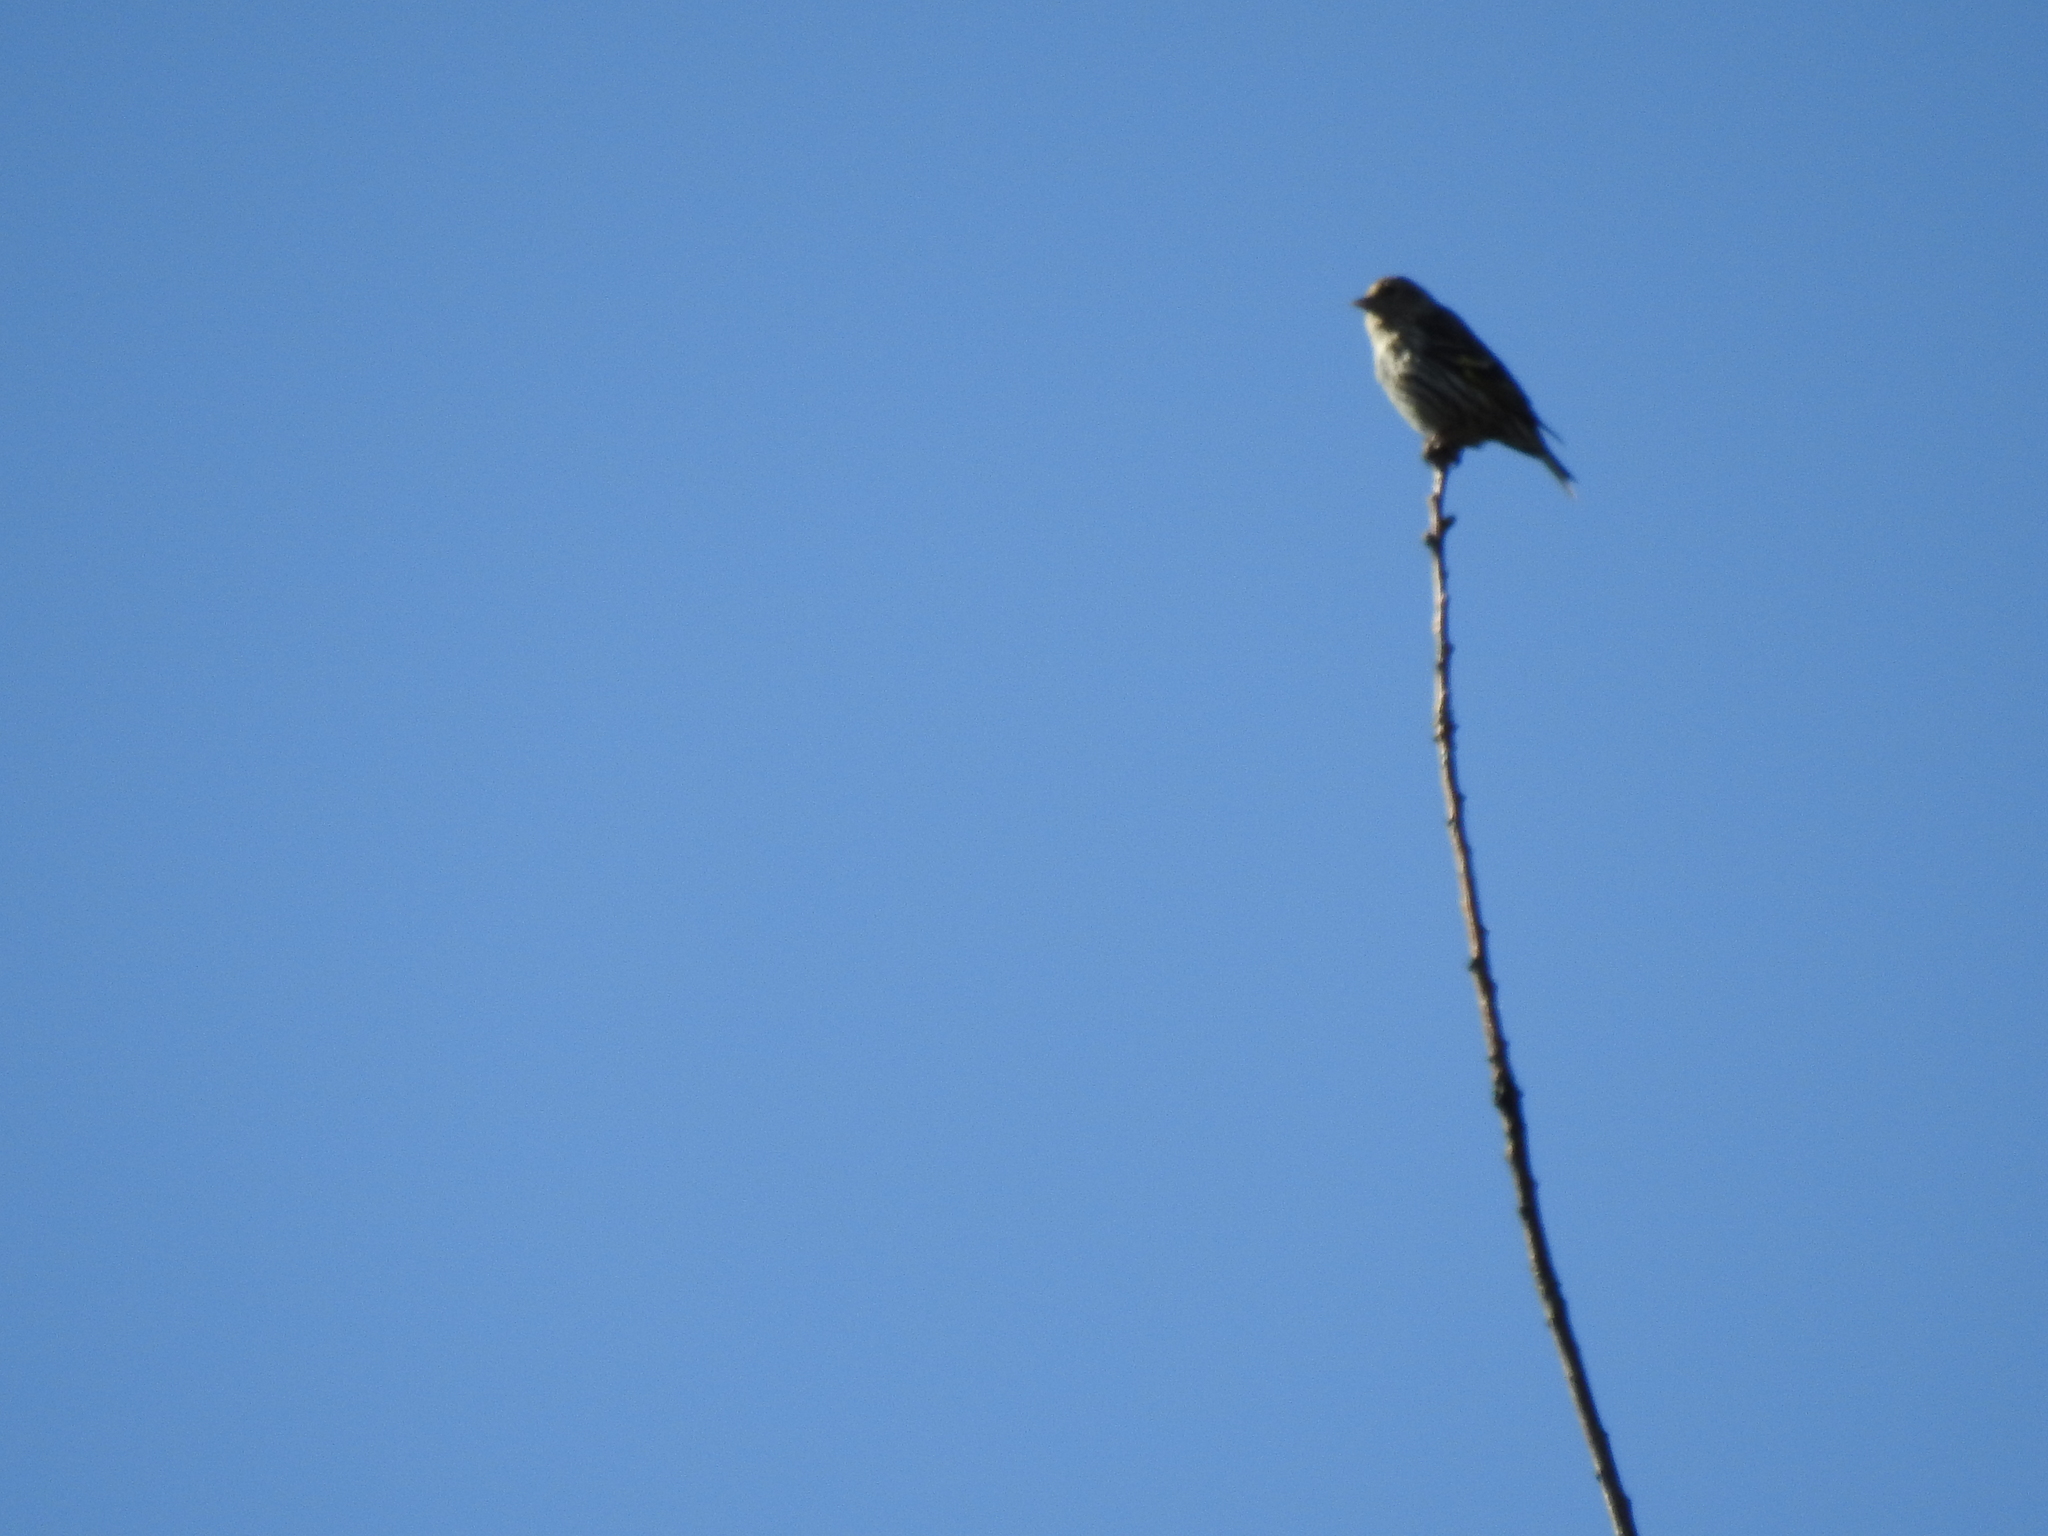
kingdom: Animalia
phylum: Chordata
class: Aves
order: Passeriformes
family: Fringillidae
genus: Spinus
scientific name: Spinus pinus
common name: Pine siskin
